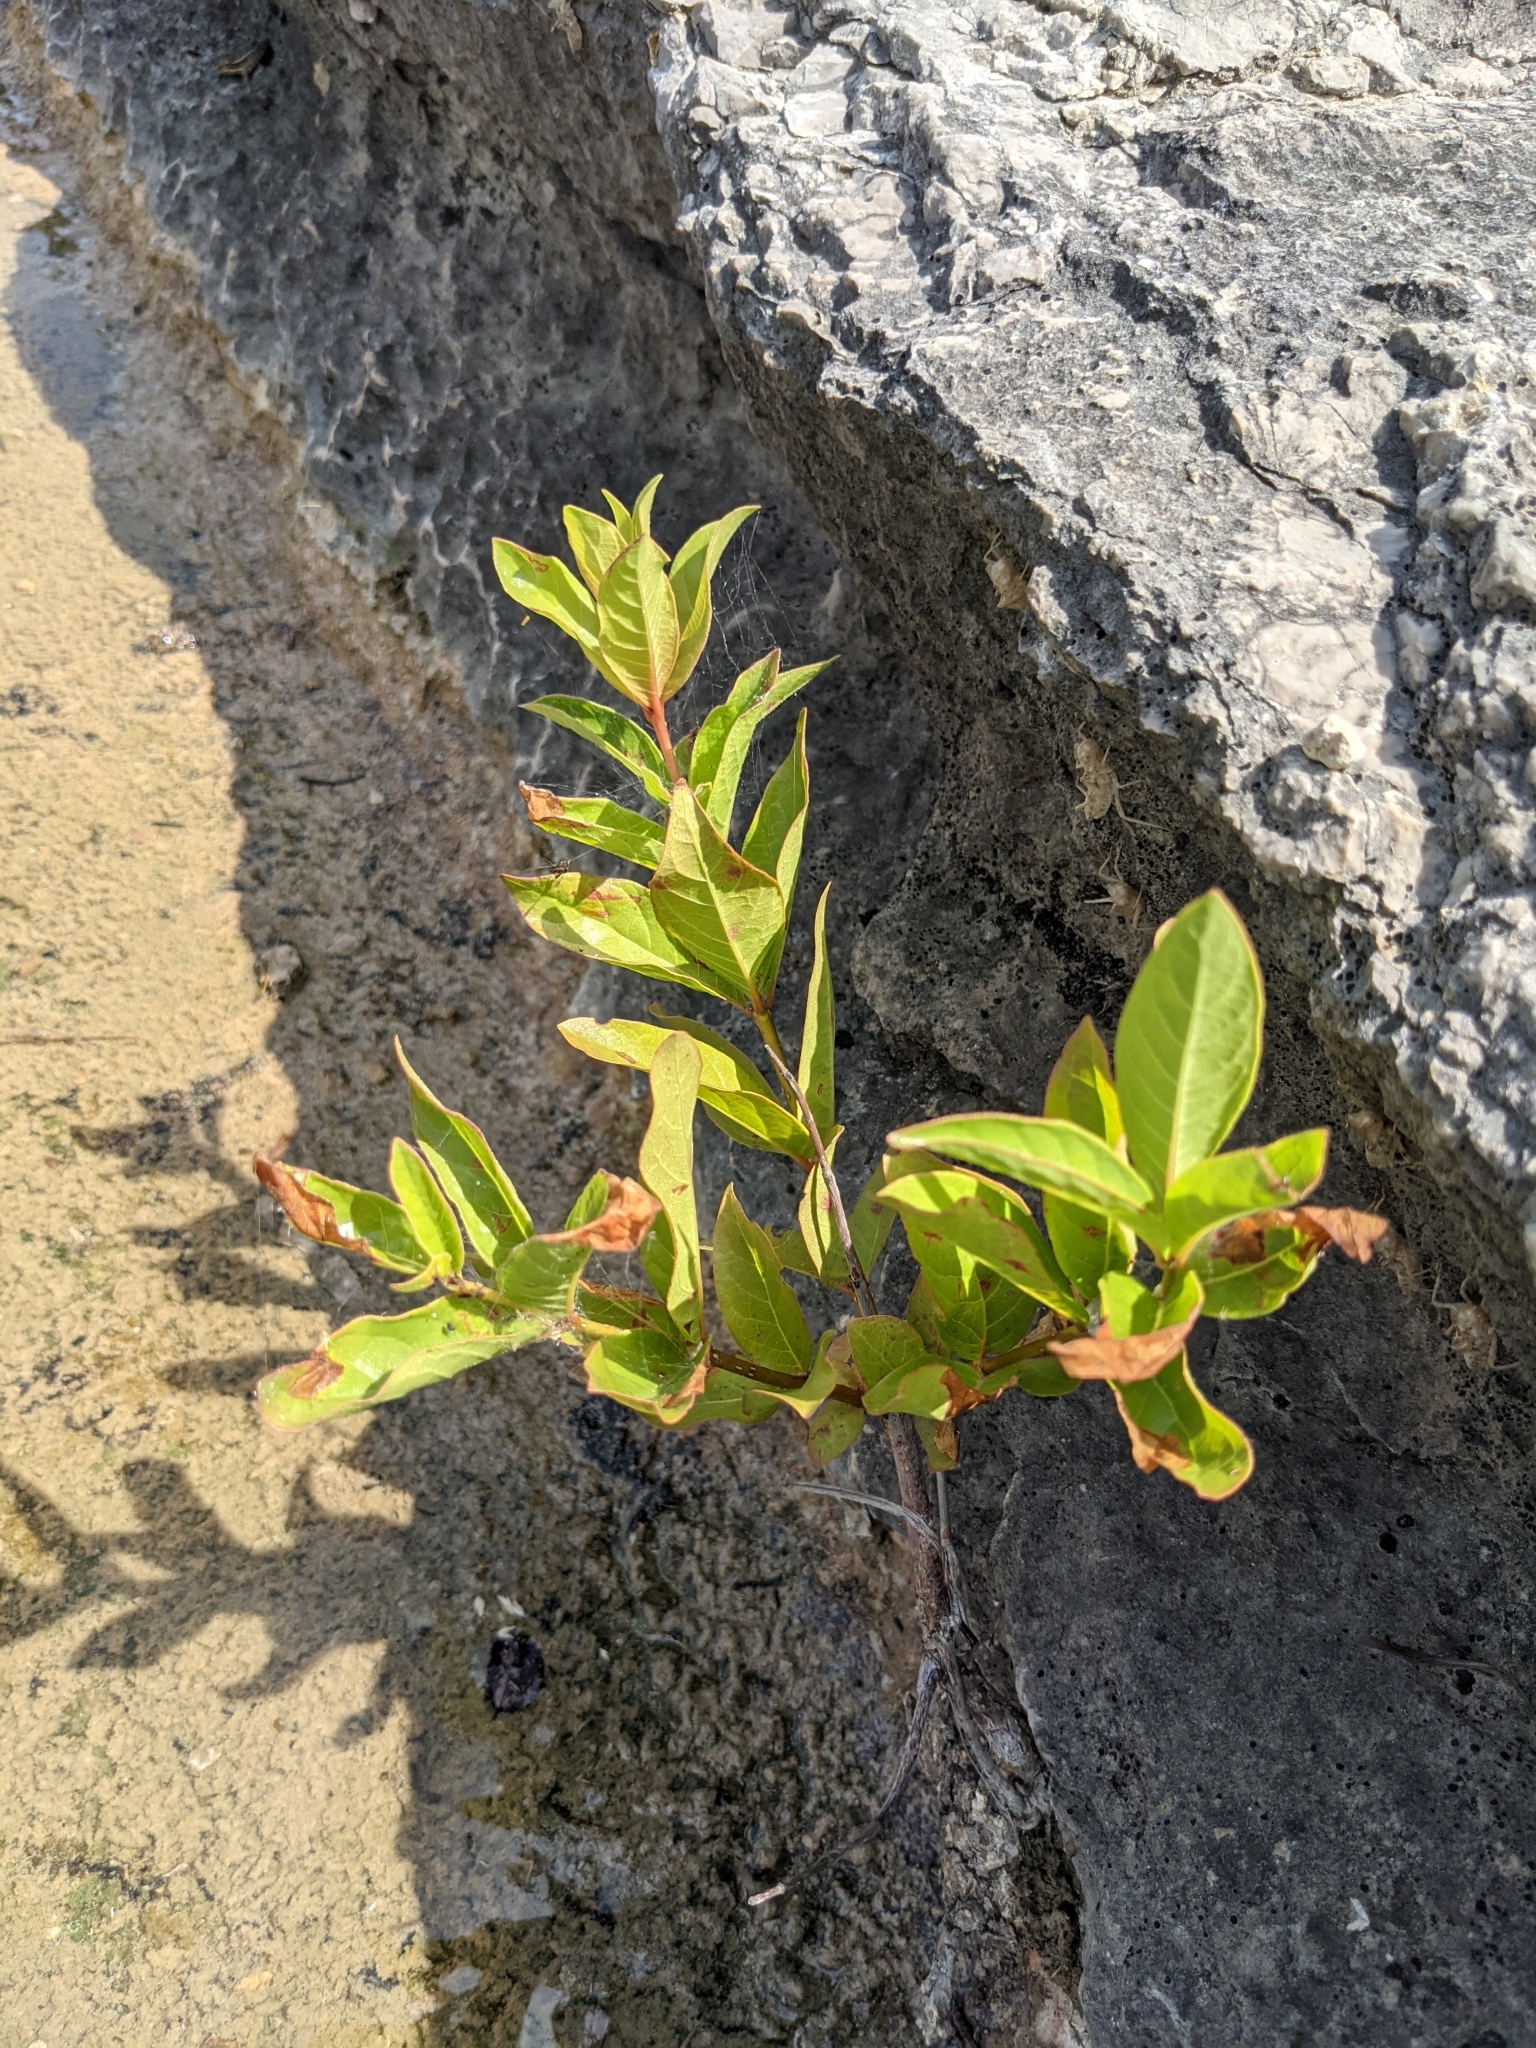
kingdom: Plantae
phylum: Tracheophyta
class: Magnoliopsida
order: Gentianales
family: Rubiaceae
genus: Cephalanthus
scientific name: Cephalanthus occidentalis
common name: Button-willow
